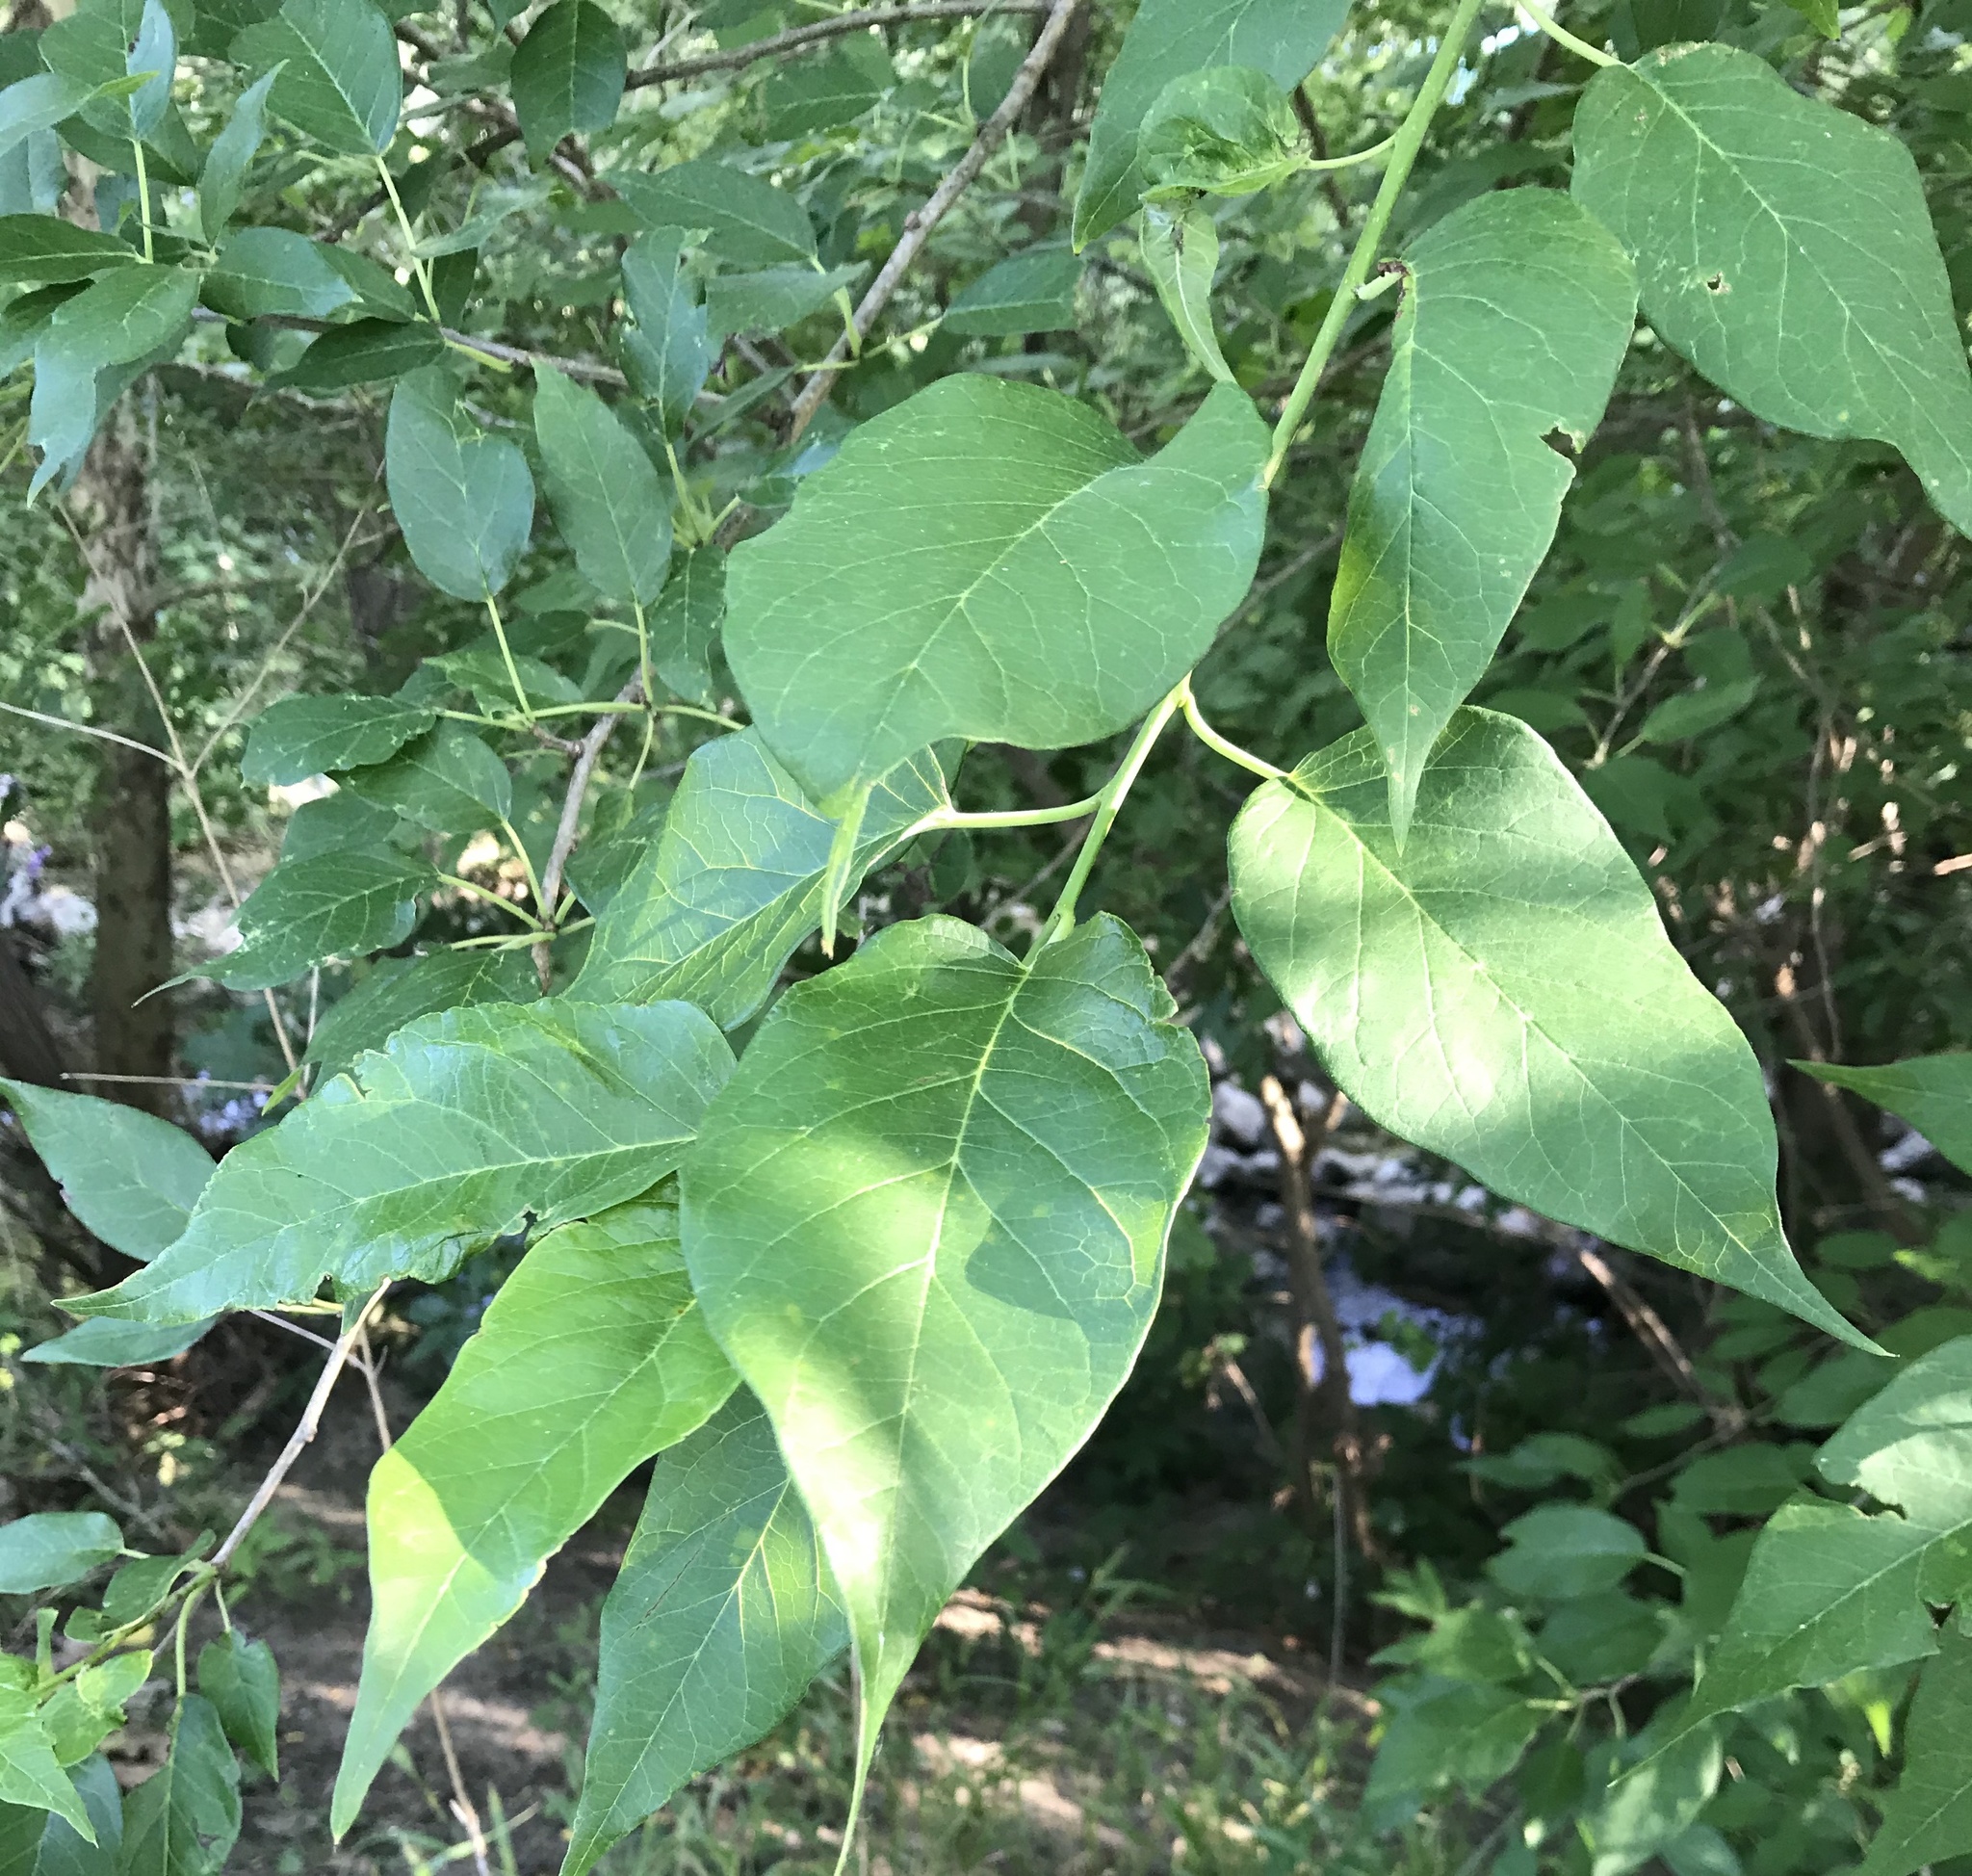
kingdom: Plantae
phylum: Tracheophyta
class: Magnoliopsida
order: Rosales
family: Moraceae
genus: Maclura
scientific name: Maclura pomifera
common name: Osage-orange
